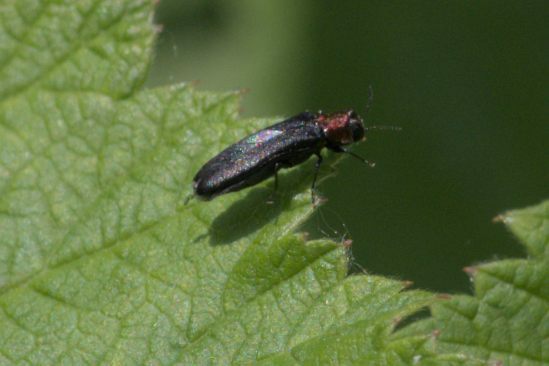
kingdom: Animalia
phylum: Arthropoda
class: Insecta
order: Coleoptera
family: Buprestidae
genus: Agrilus
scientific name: Agrilus ruficollis
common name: Red-necked cane borer beetle
